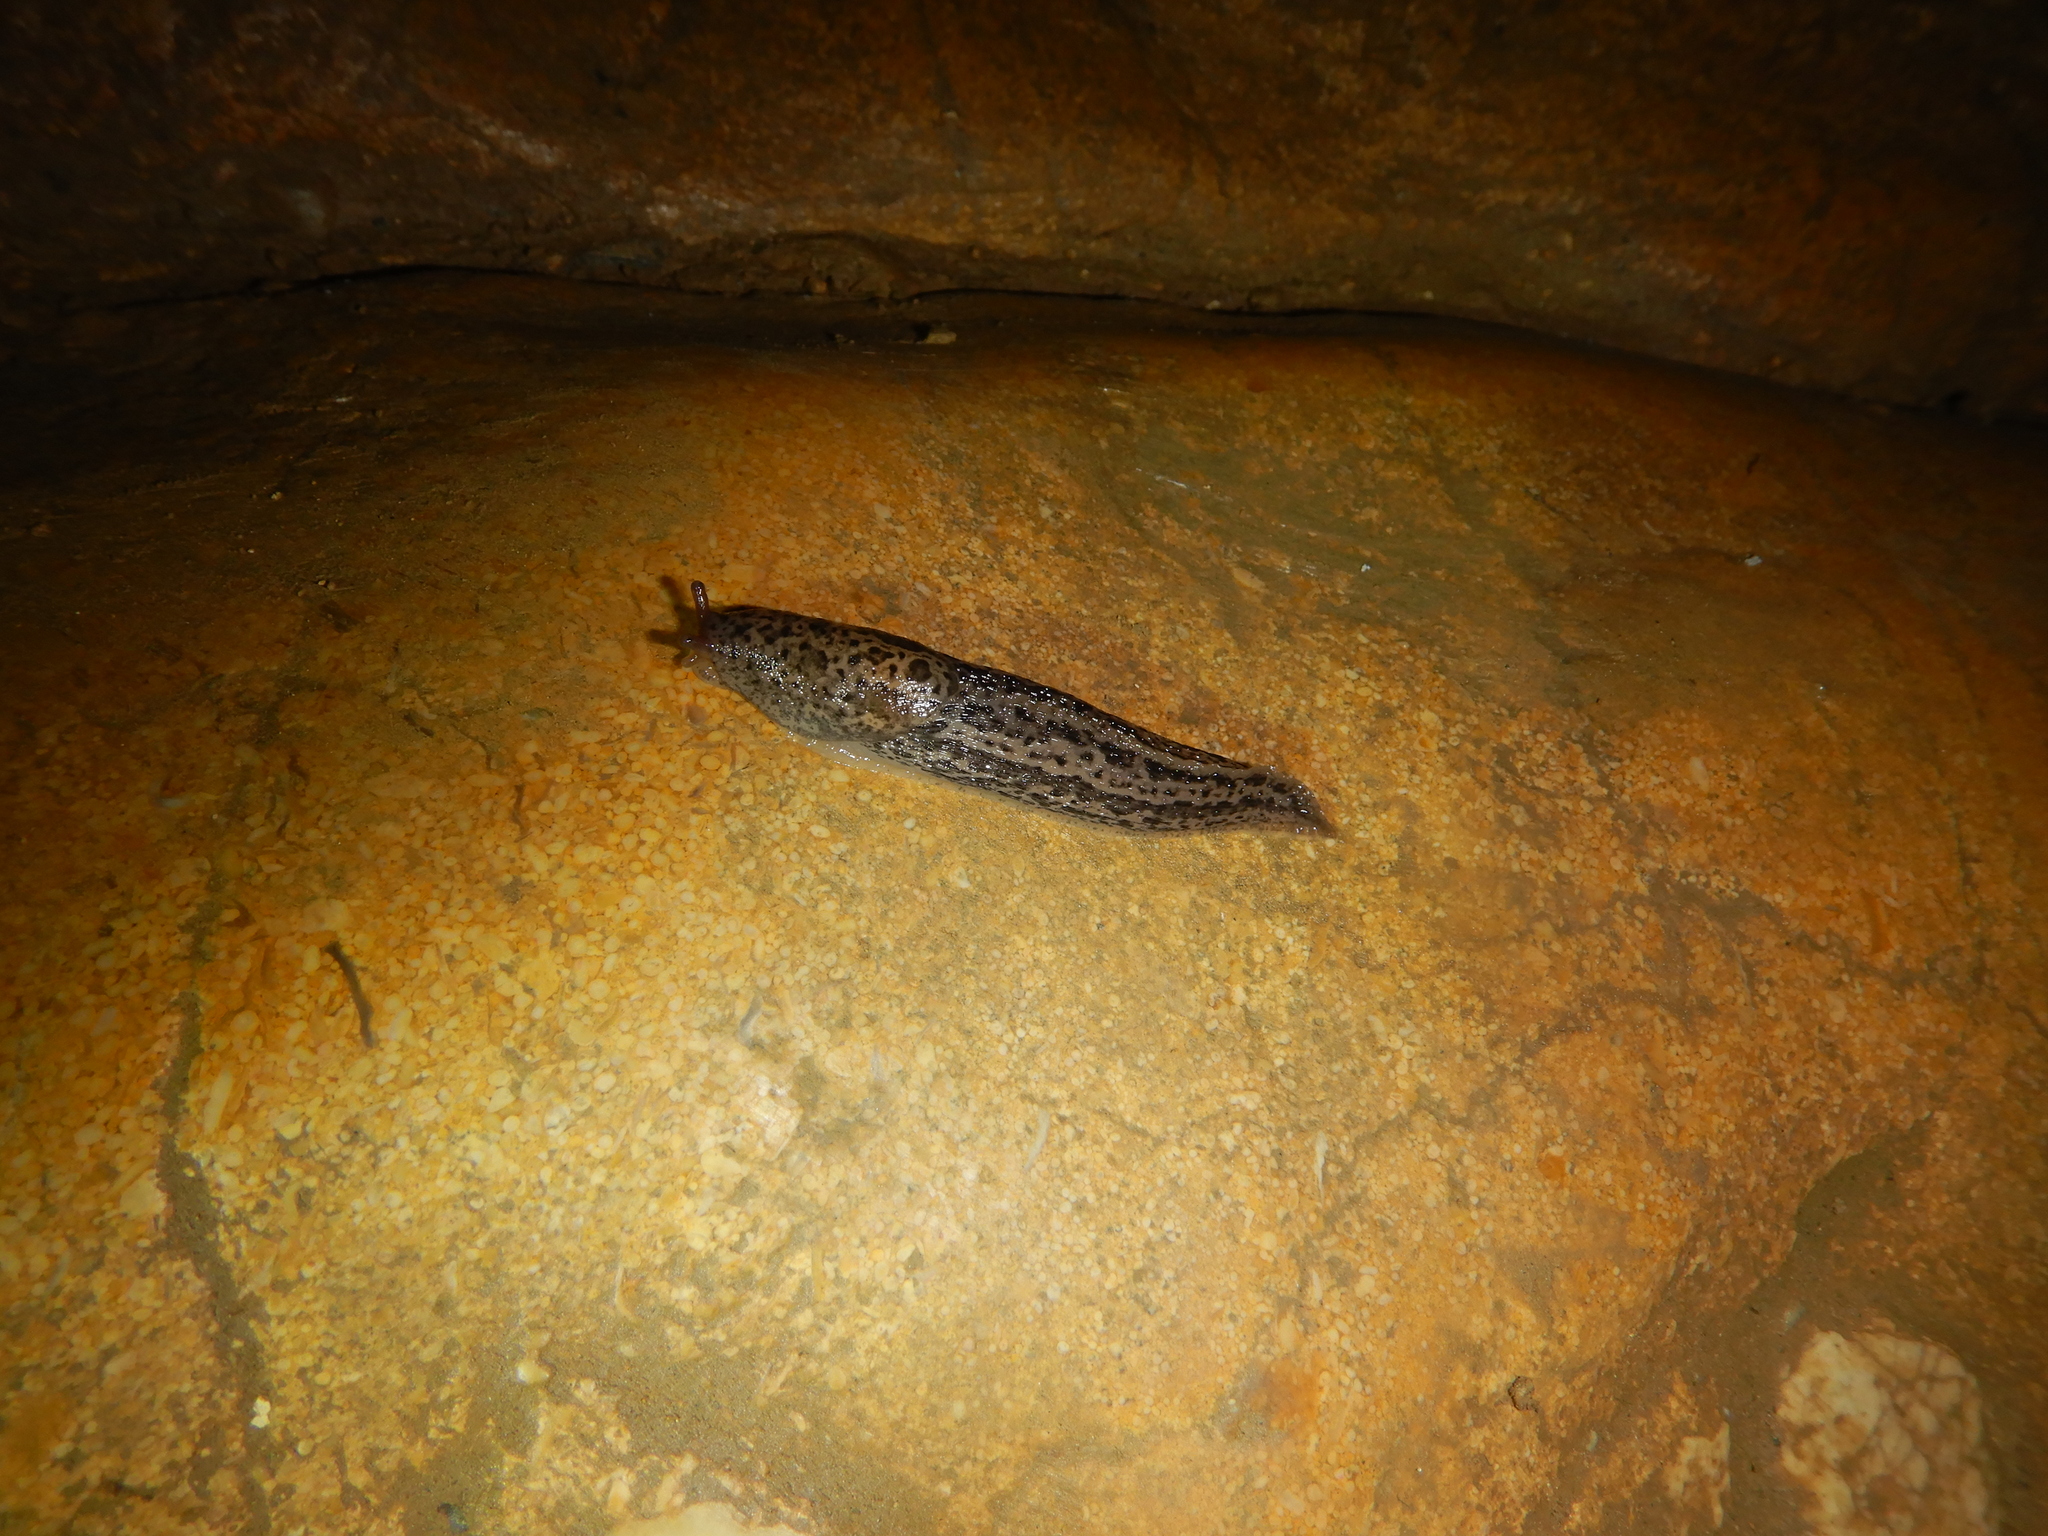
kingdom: Animalia
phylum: Mollusca
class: Gastropoda
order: Stylommatophora
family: Limacidae
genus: Limax
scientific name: Limax maximus
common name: Great grey slug
